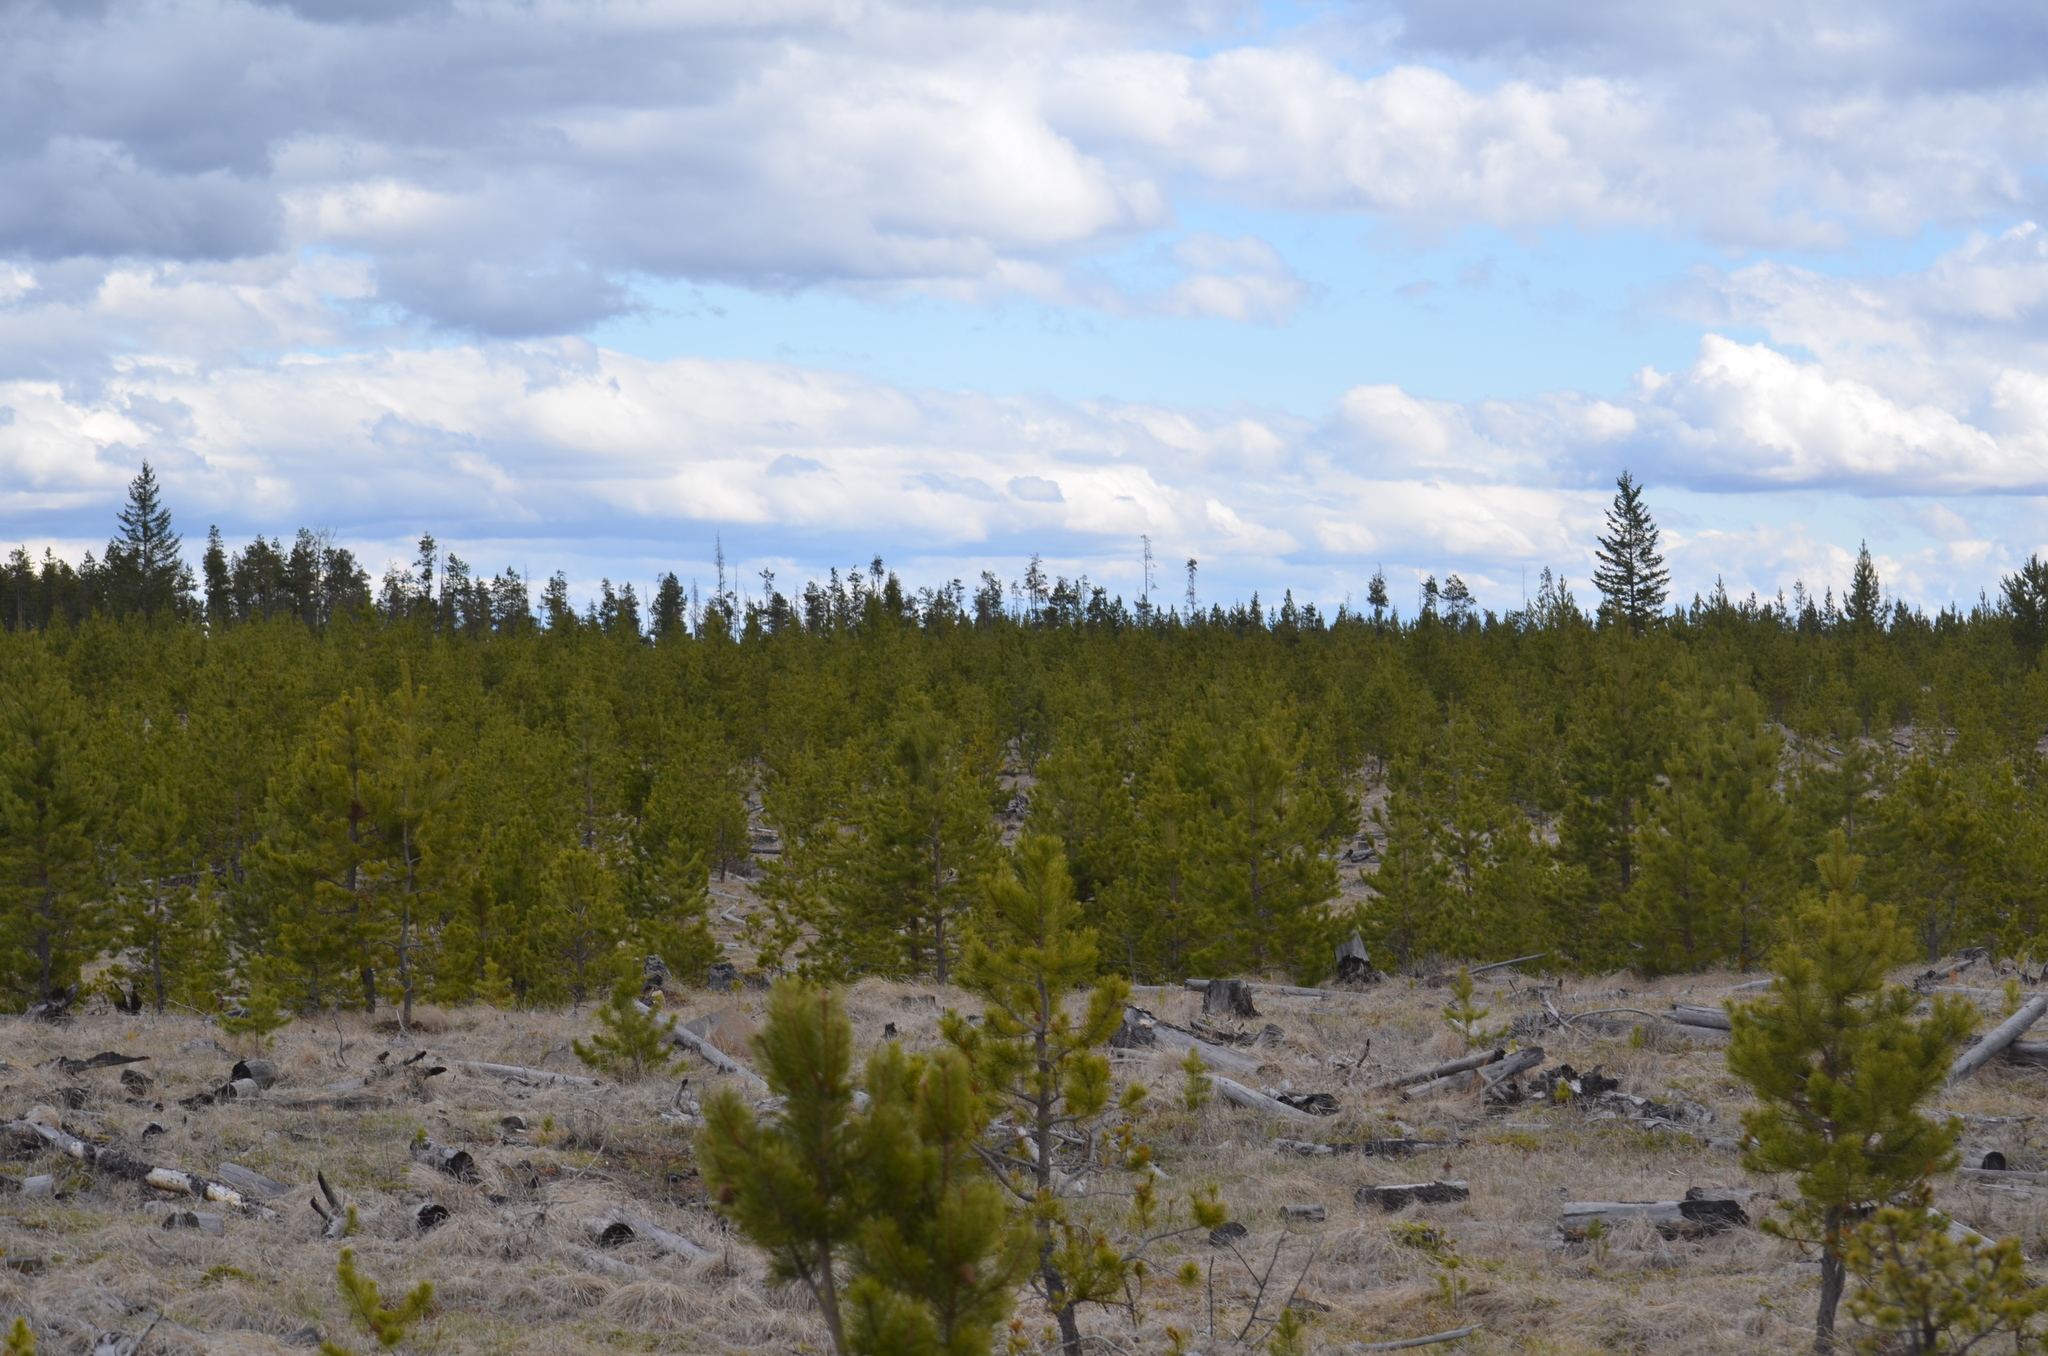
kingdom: Plantae
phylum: Tracheophyta
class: Pinopsida
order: Pinales
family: Pinaceae
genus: Pinus
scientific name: Pinus contorta
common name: Lodgepole pine
